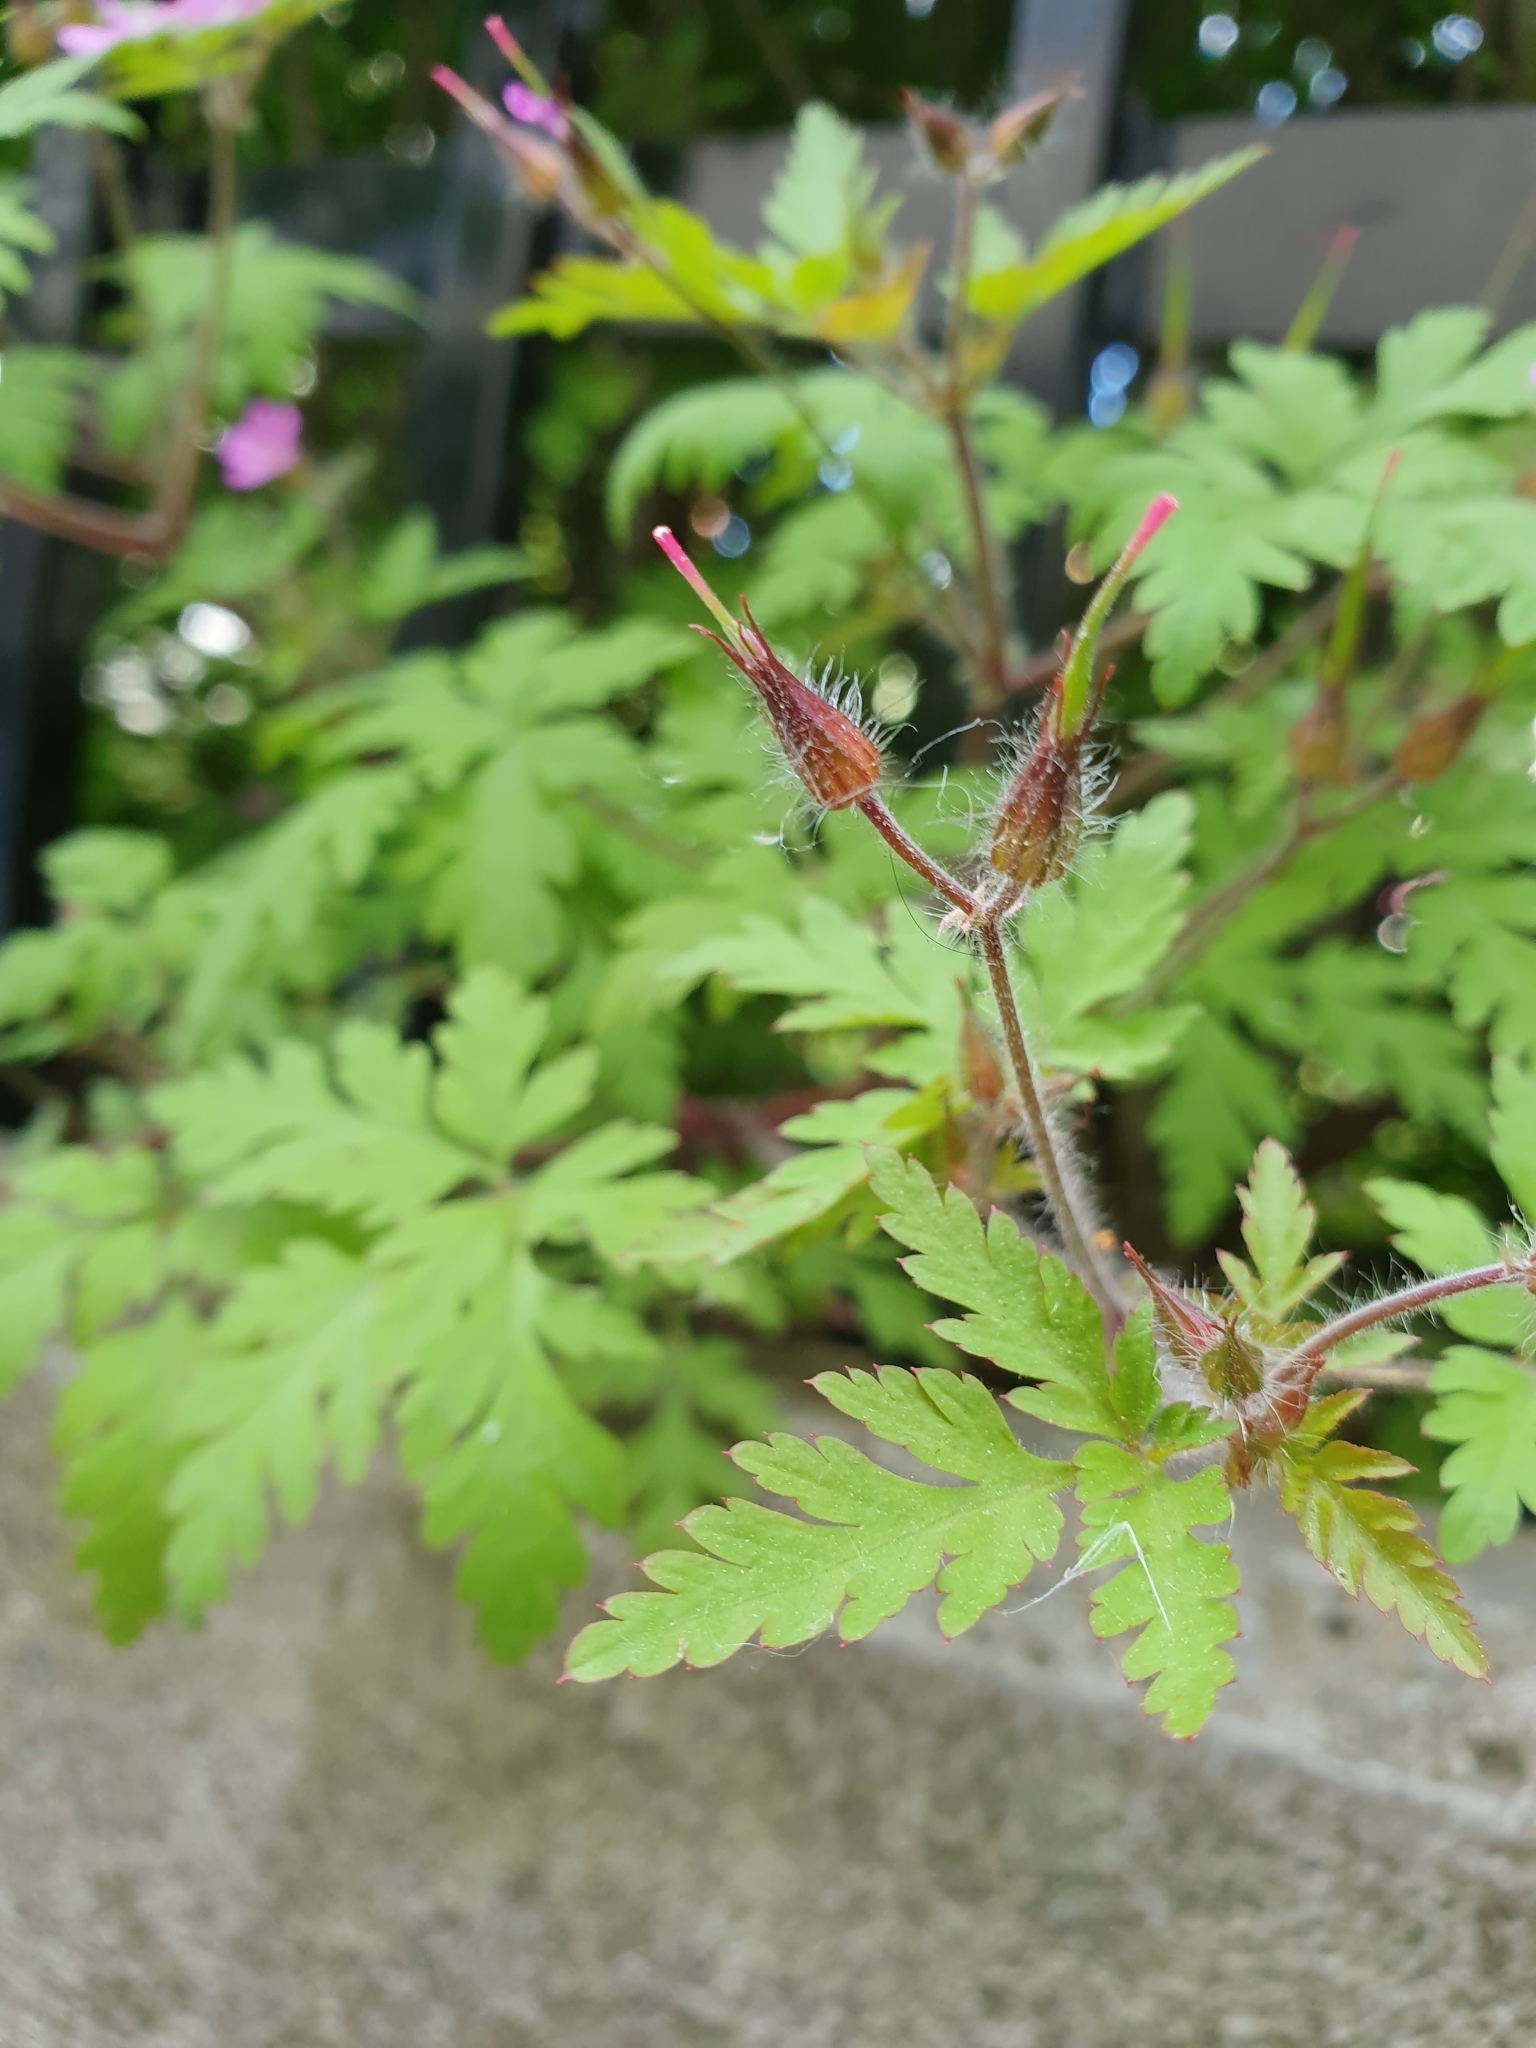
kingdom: Plantae
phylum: Tracheophyta
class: Magnoliopsida
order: Geraniales
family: Geraniaceae
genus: Geranium
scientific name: Geranium robertianum
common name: Herb-robert
